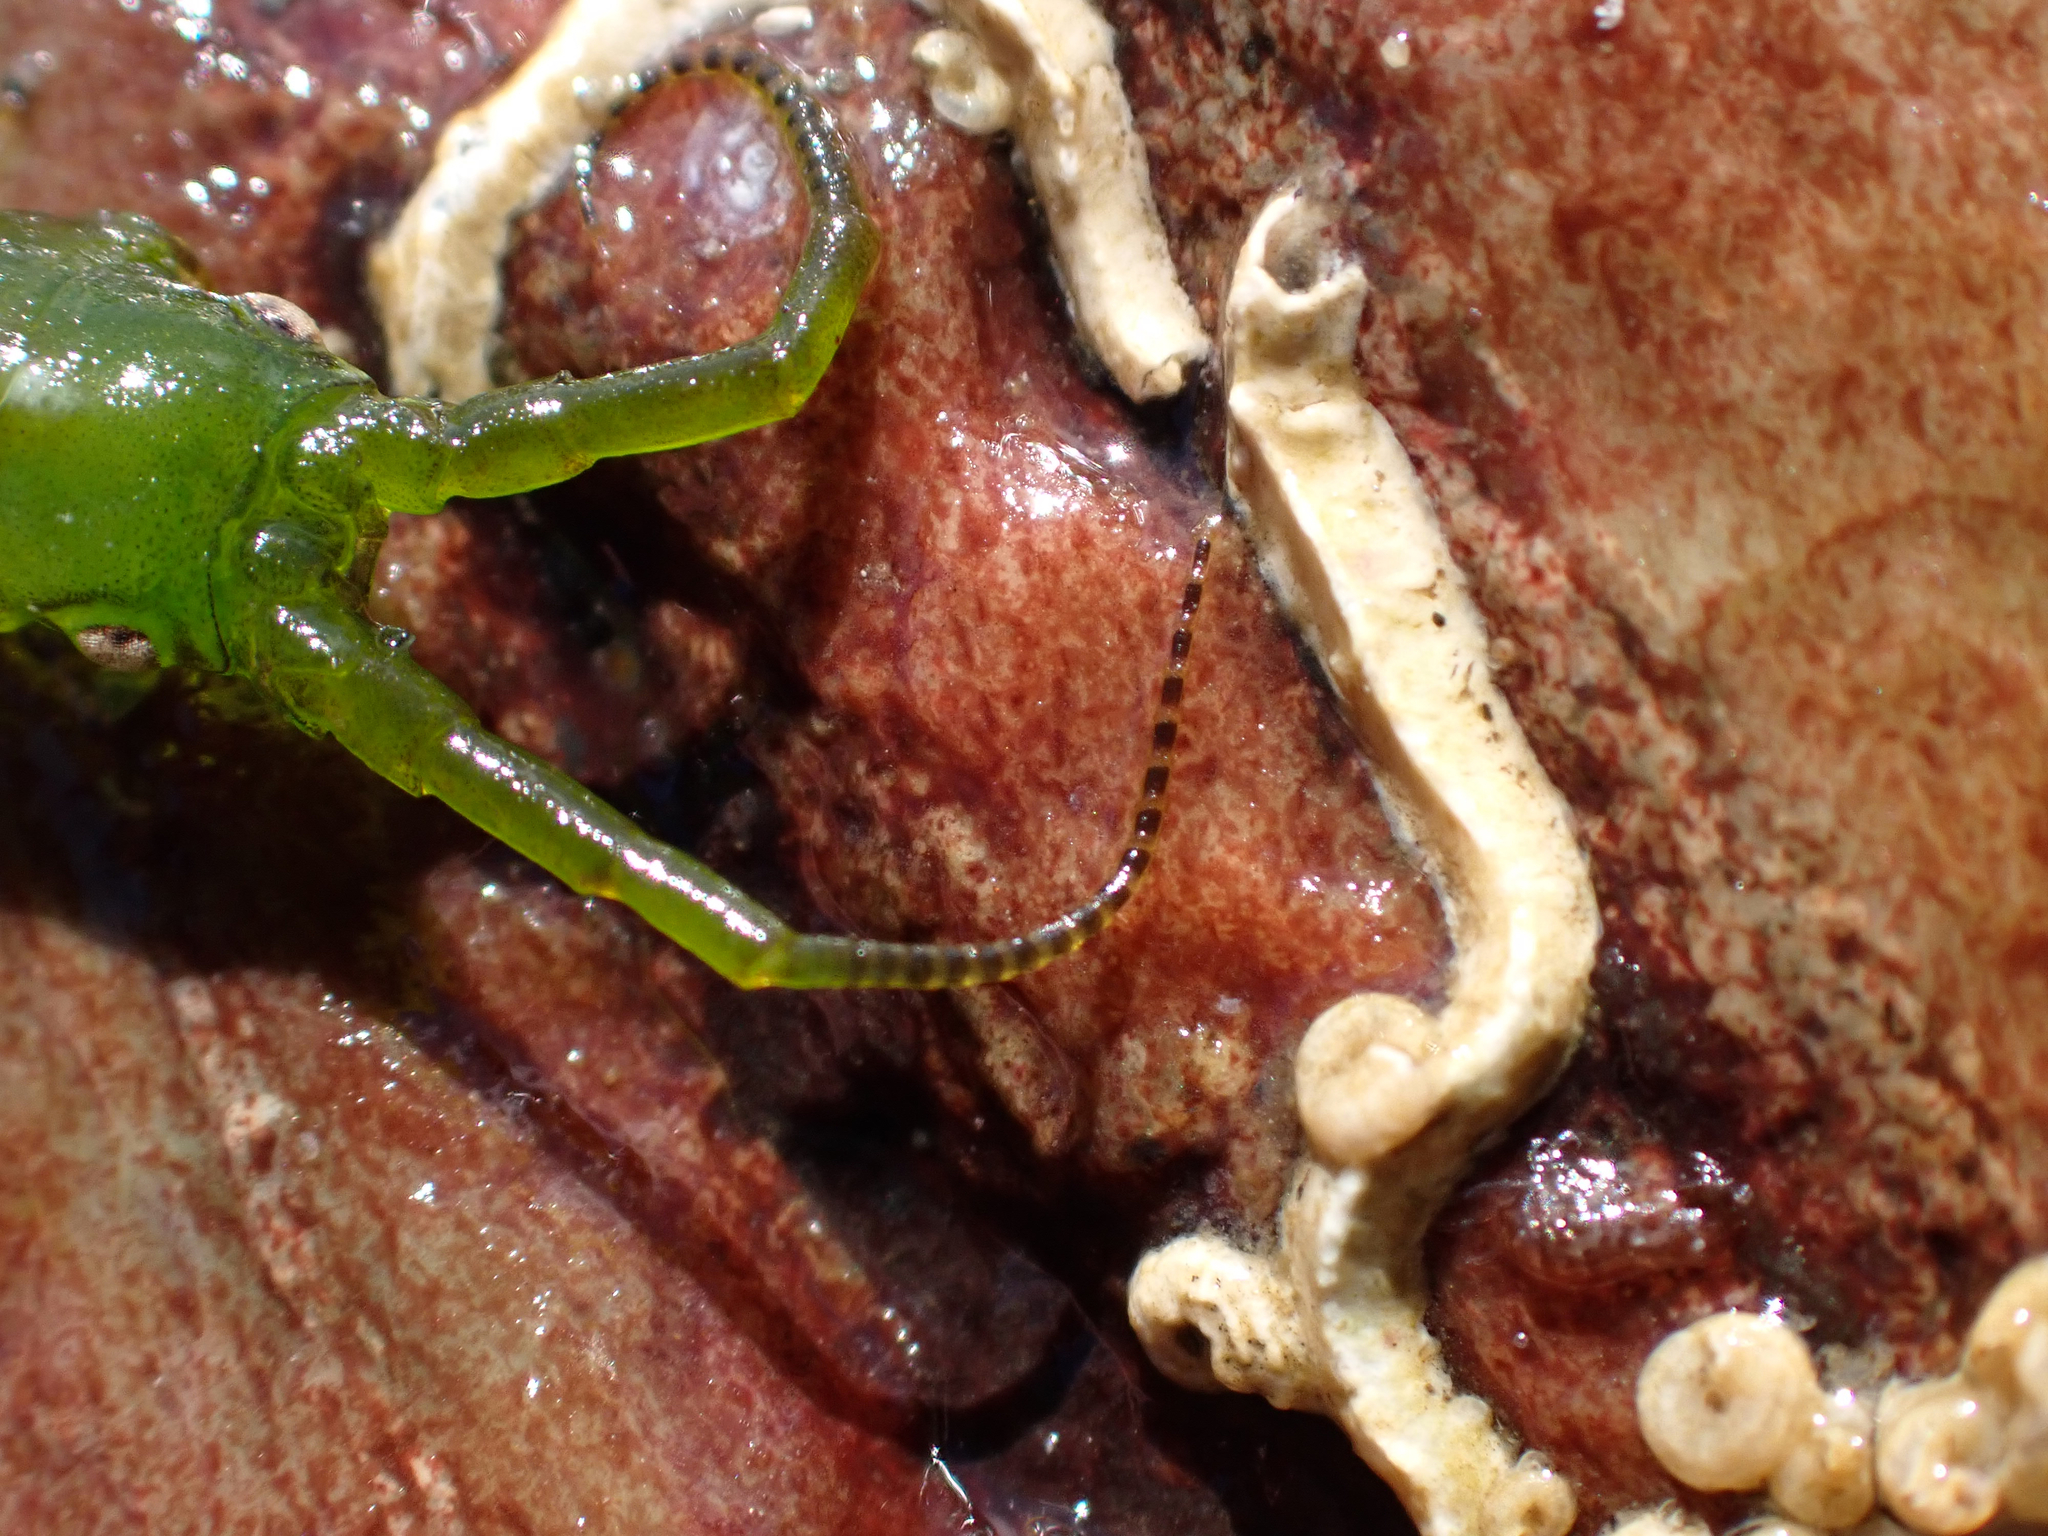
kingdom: Animalia
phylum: Arthropoda
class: Malacostraca
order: Isopoda
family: Idoteidae
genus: Pentidotea
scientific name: Pentidotea resecata
